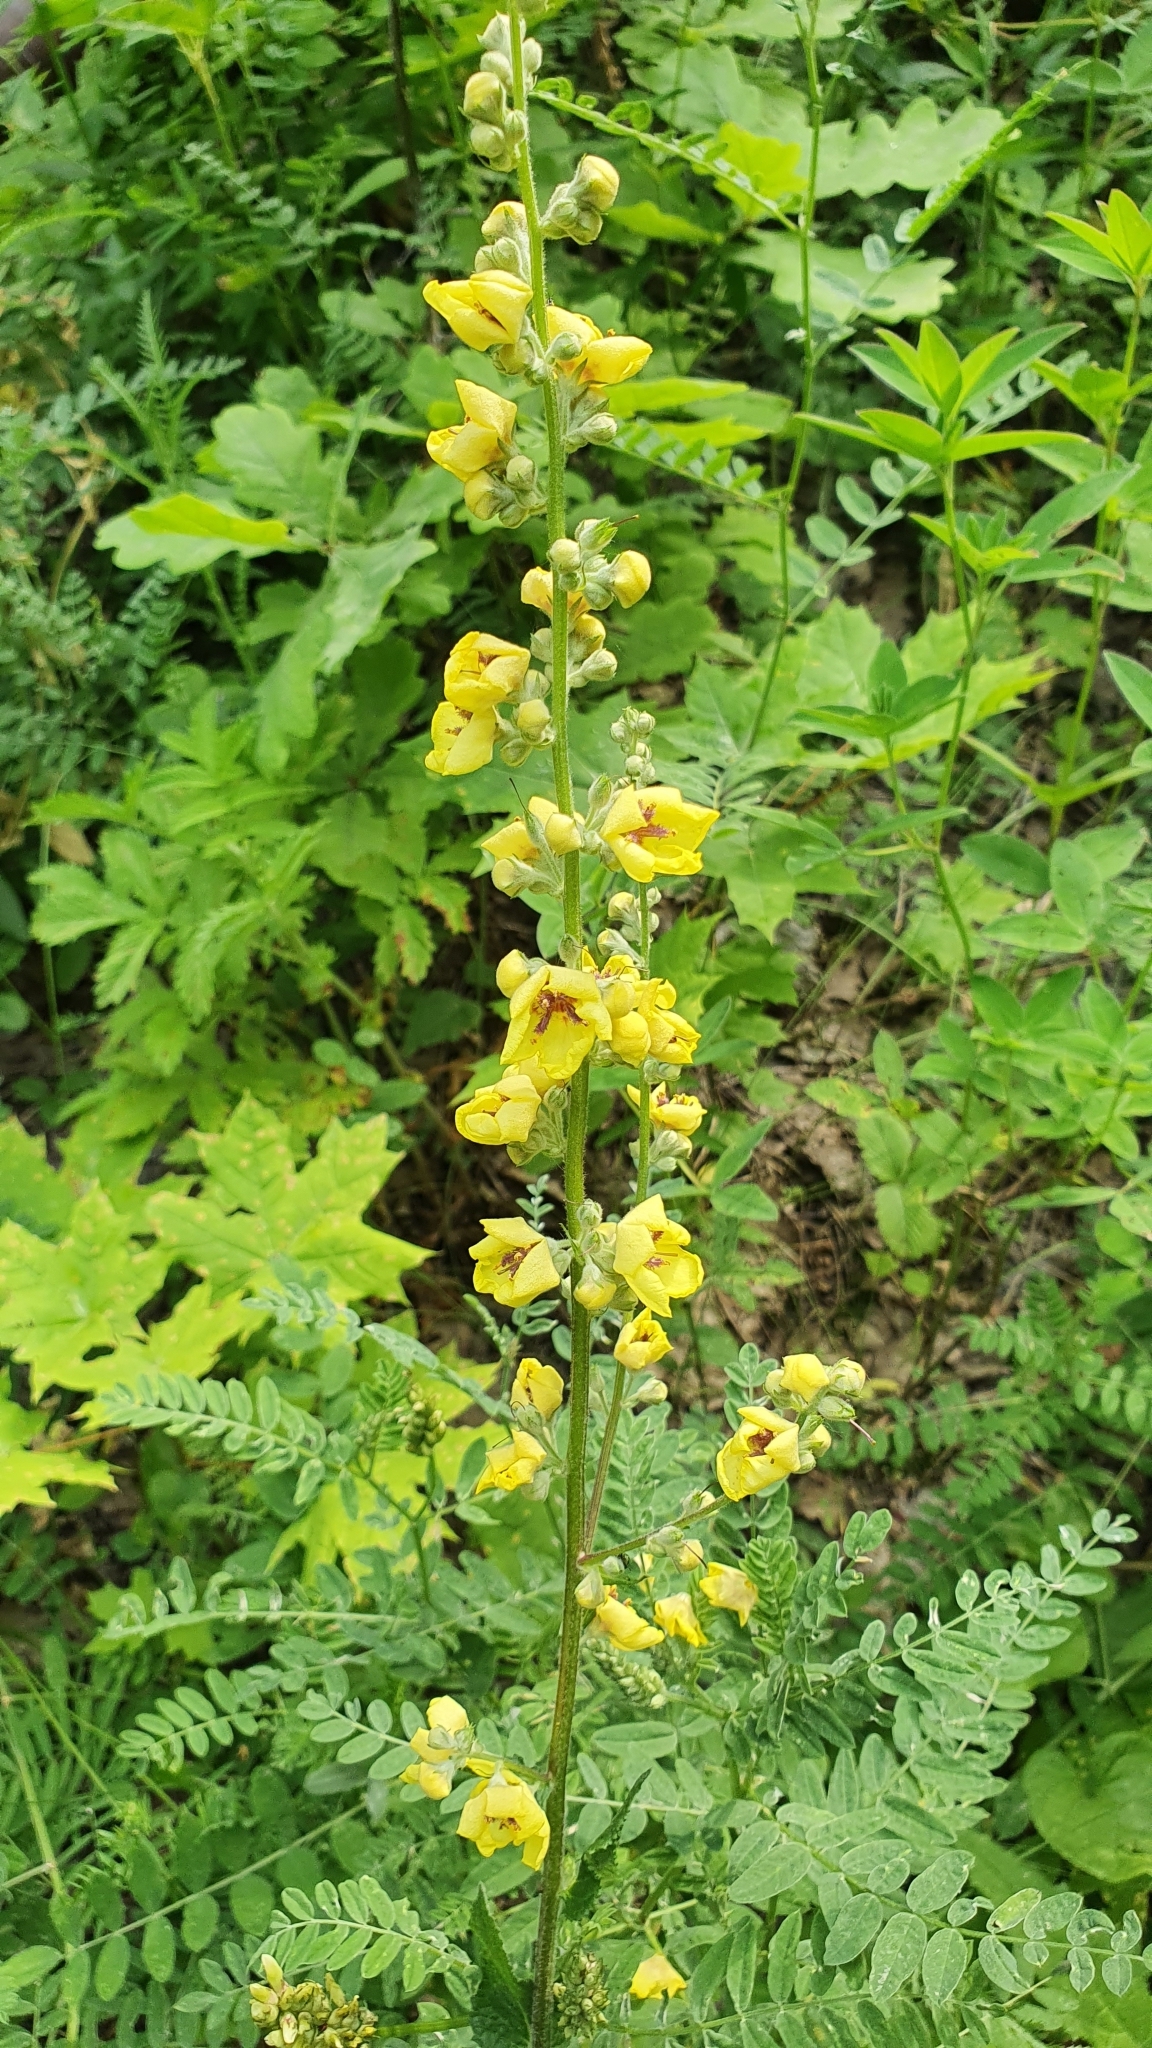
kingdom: Plantae
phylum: Tracheophyta
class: Magnoliopsida
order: Lamiales
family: Scrophulariaceae
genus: Verbascum
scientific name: Verbascum chaixii
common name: Nettle-leaved mullein
